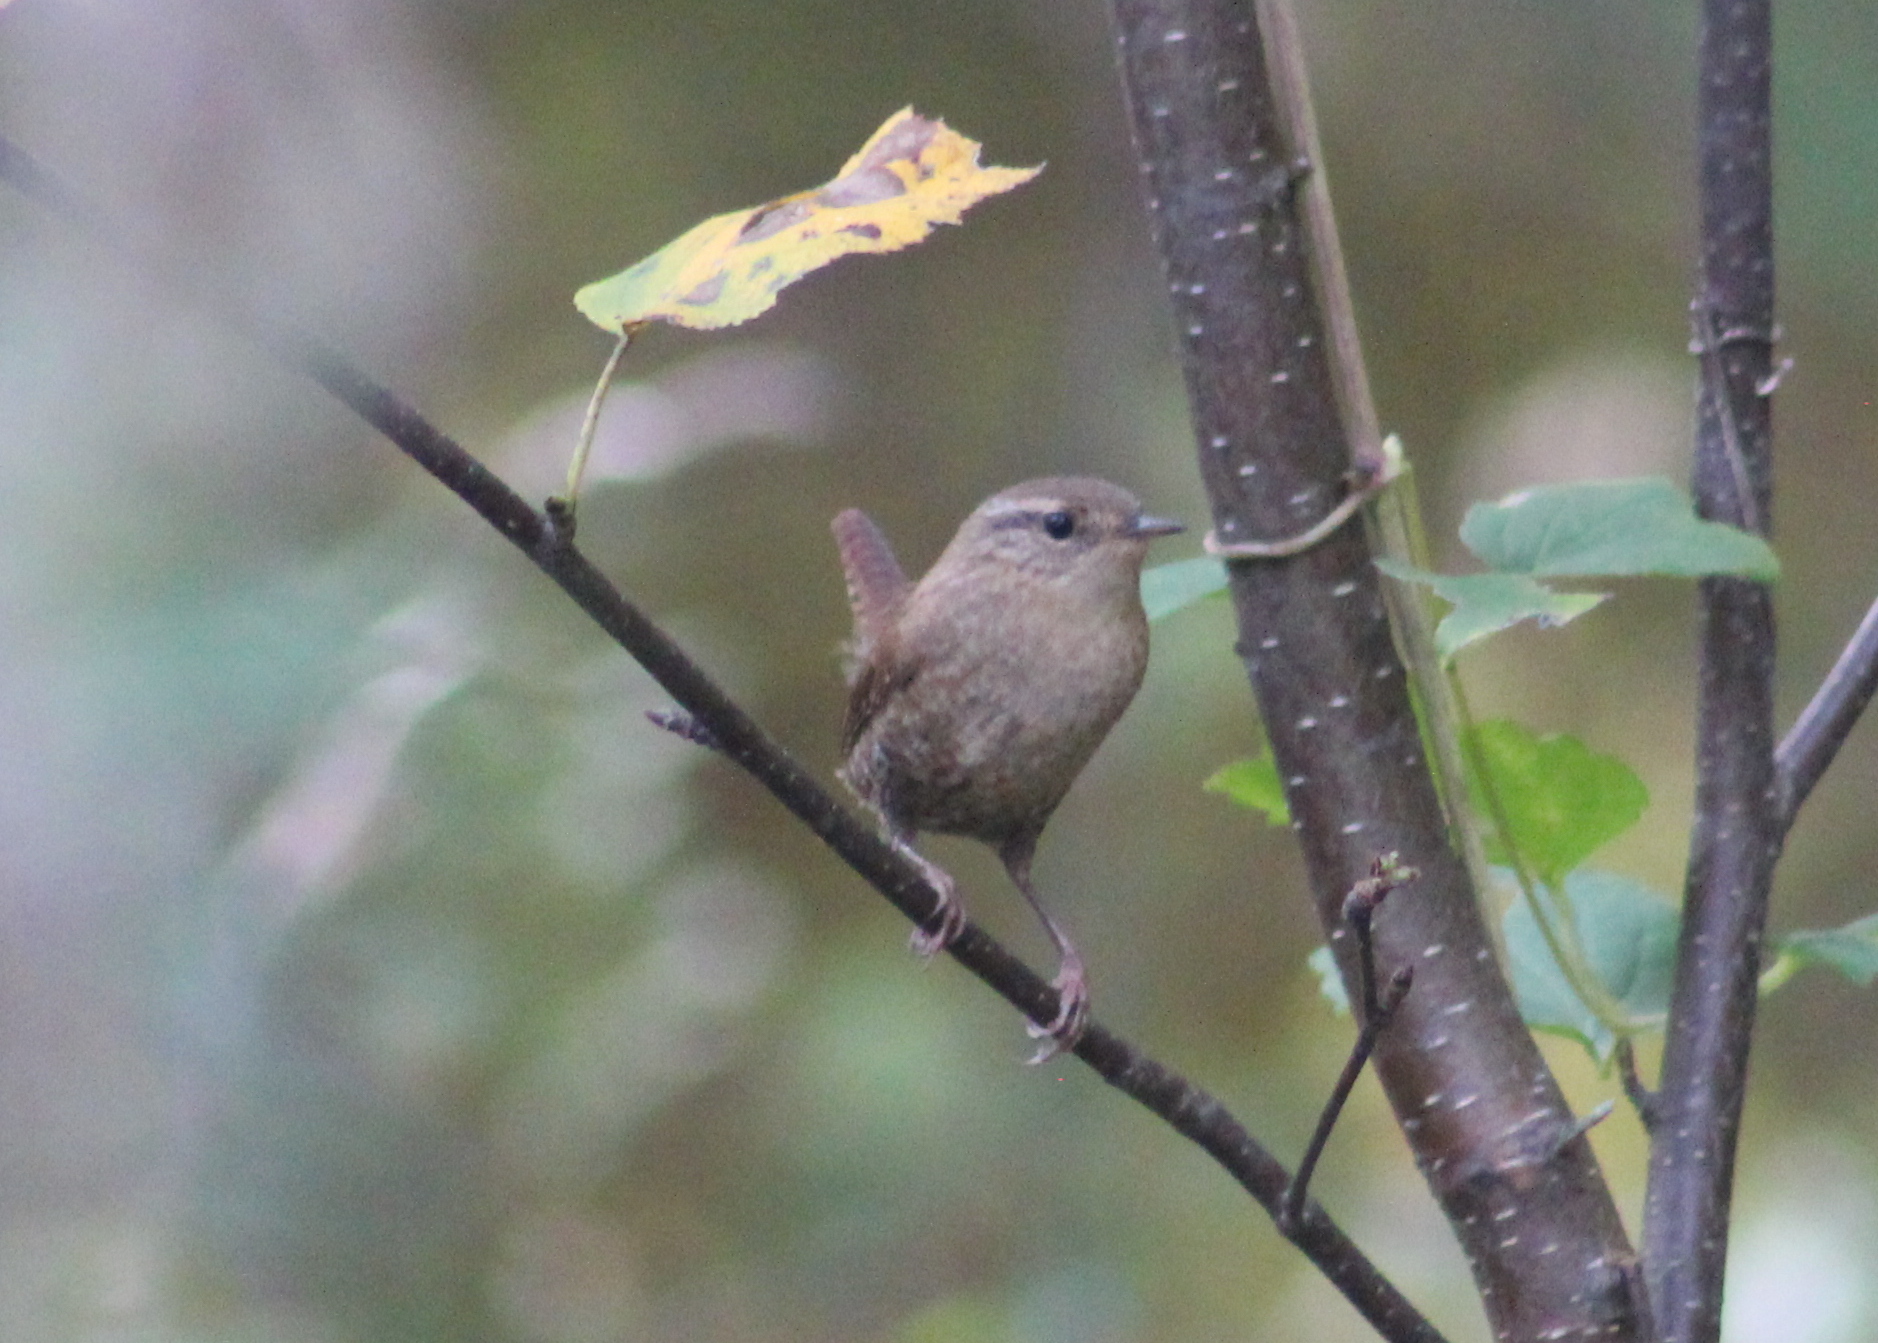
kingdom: Animalia
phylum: Chordata
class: Aves
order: Passeriformes
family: Troglodytidae
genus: Troglodytes
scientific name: Troglodytes hiemalis
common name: Winter wren
